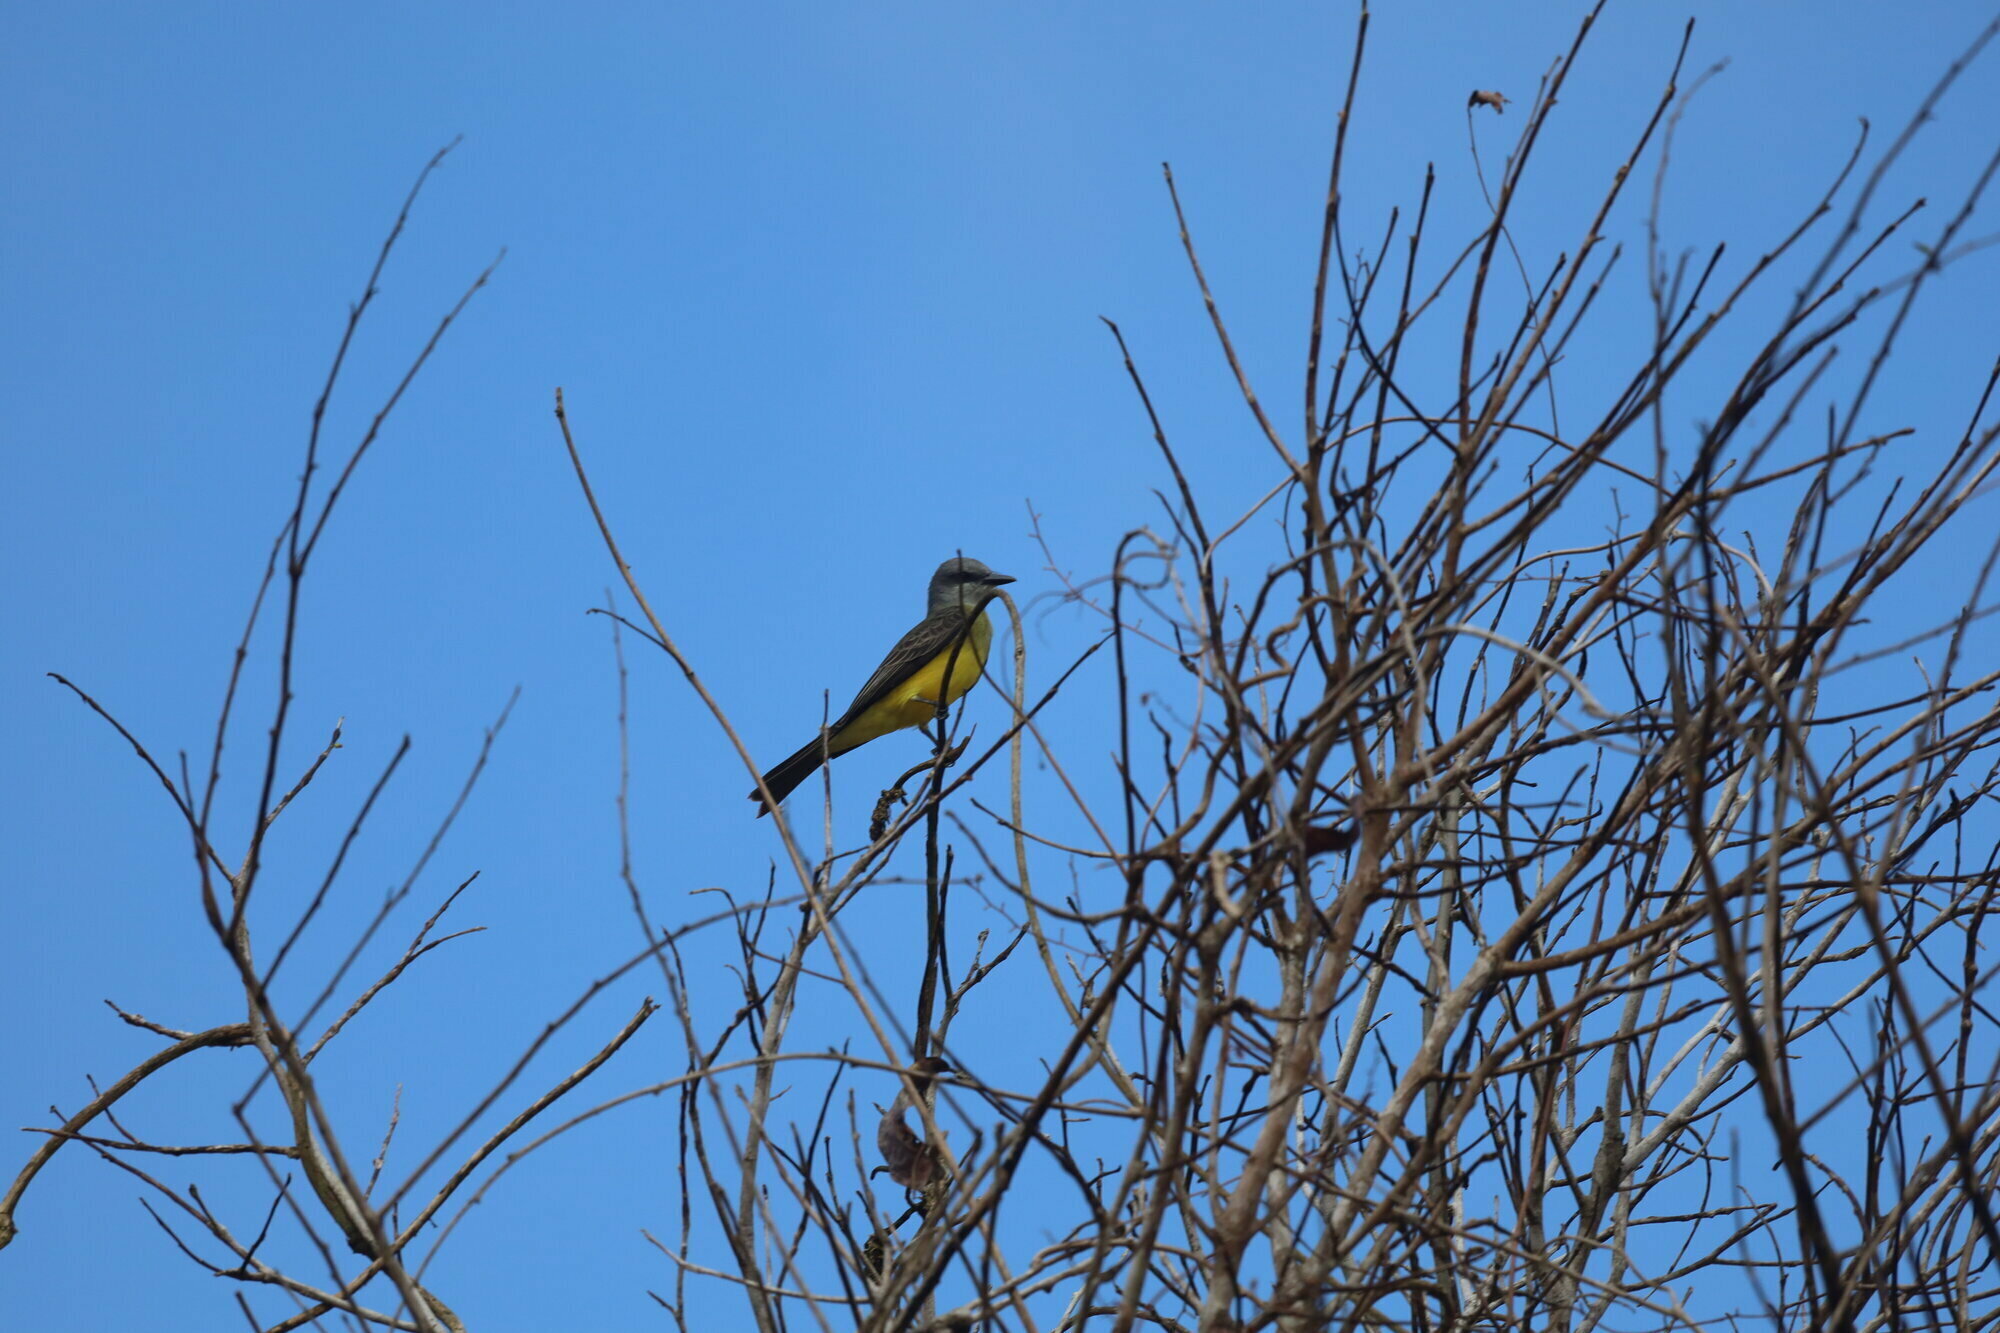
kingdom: Animalia
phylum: Chordata
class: Aves
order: Passeriformes
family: Tyrannidae
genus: Tyrannus
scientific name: Tyrannus melancholicus
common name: Tropical kingbird
